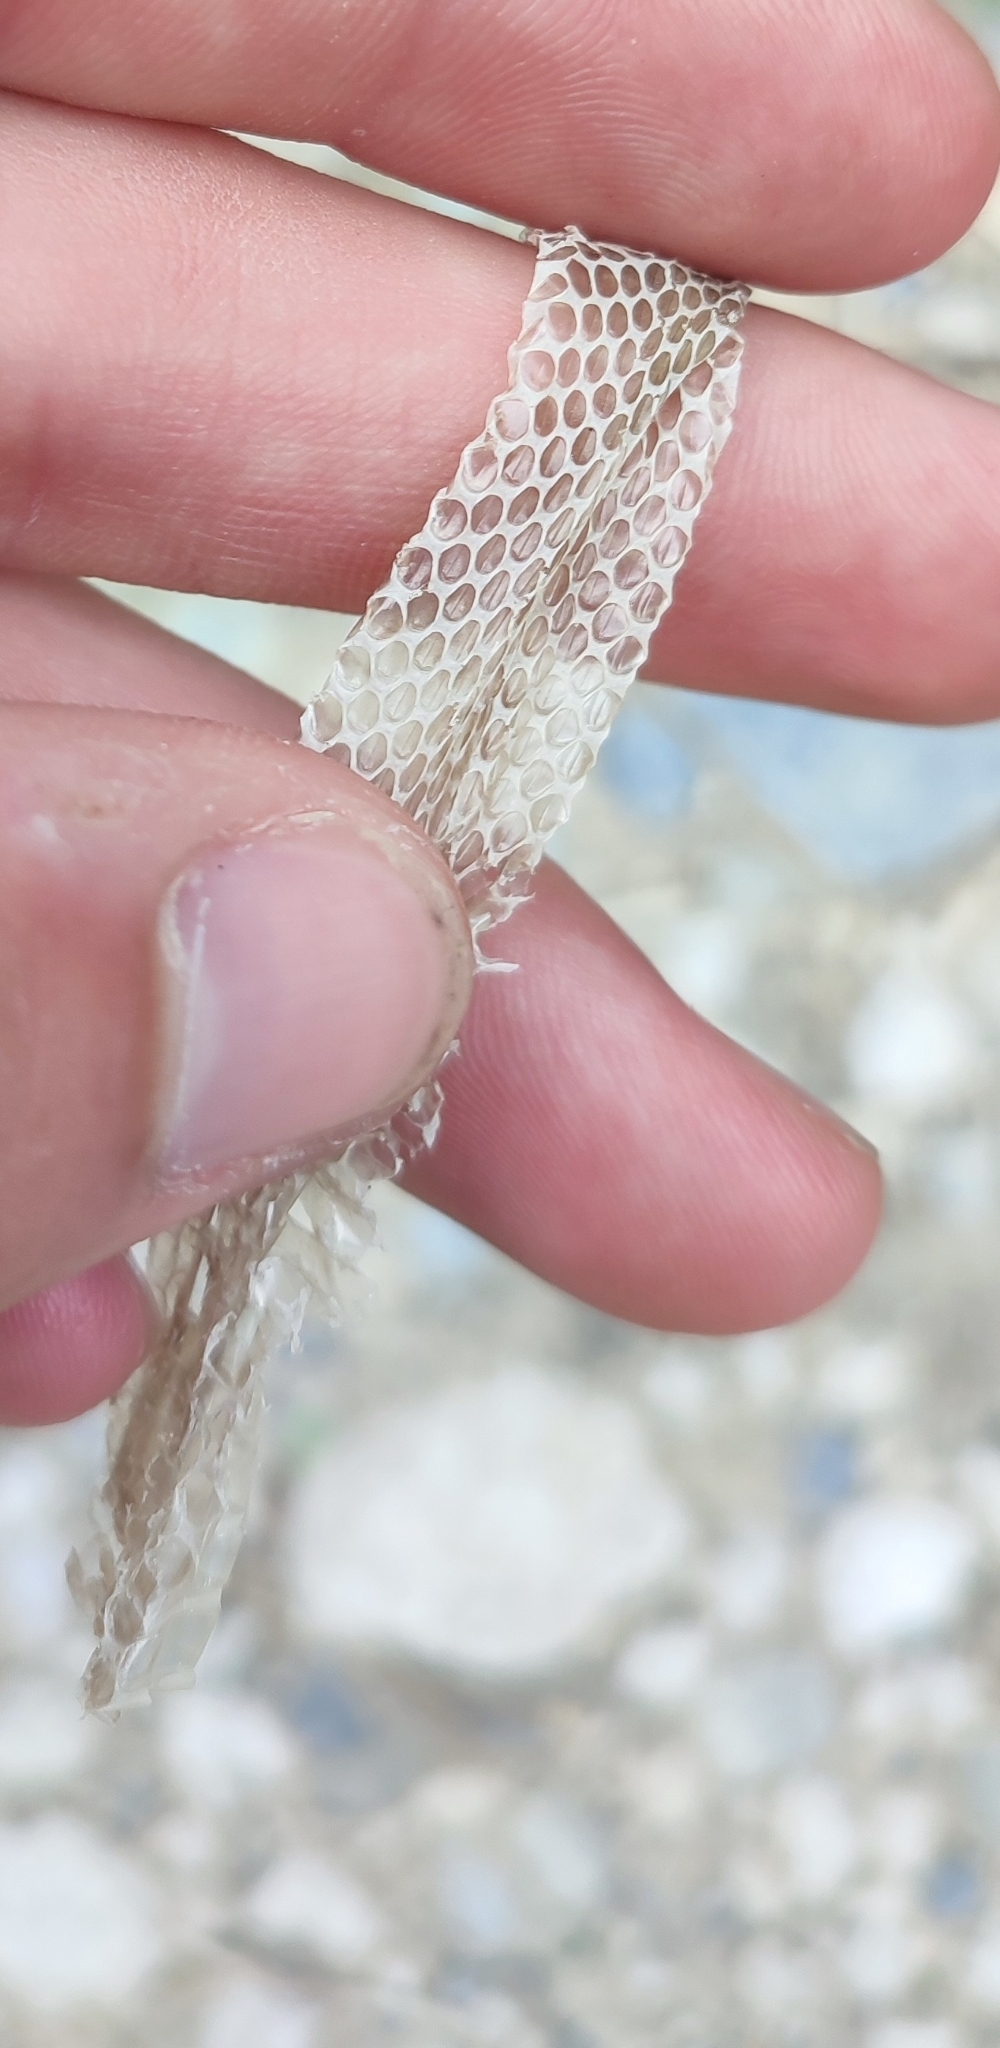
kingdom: Animalia
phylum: Chordata
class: Squamata
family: Colubridae
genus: Natrix
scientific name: Natrix maura
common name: Viperine water snake
